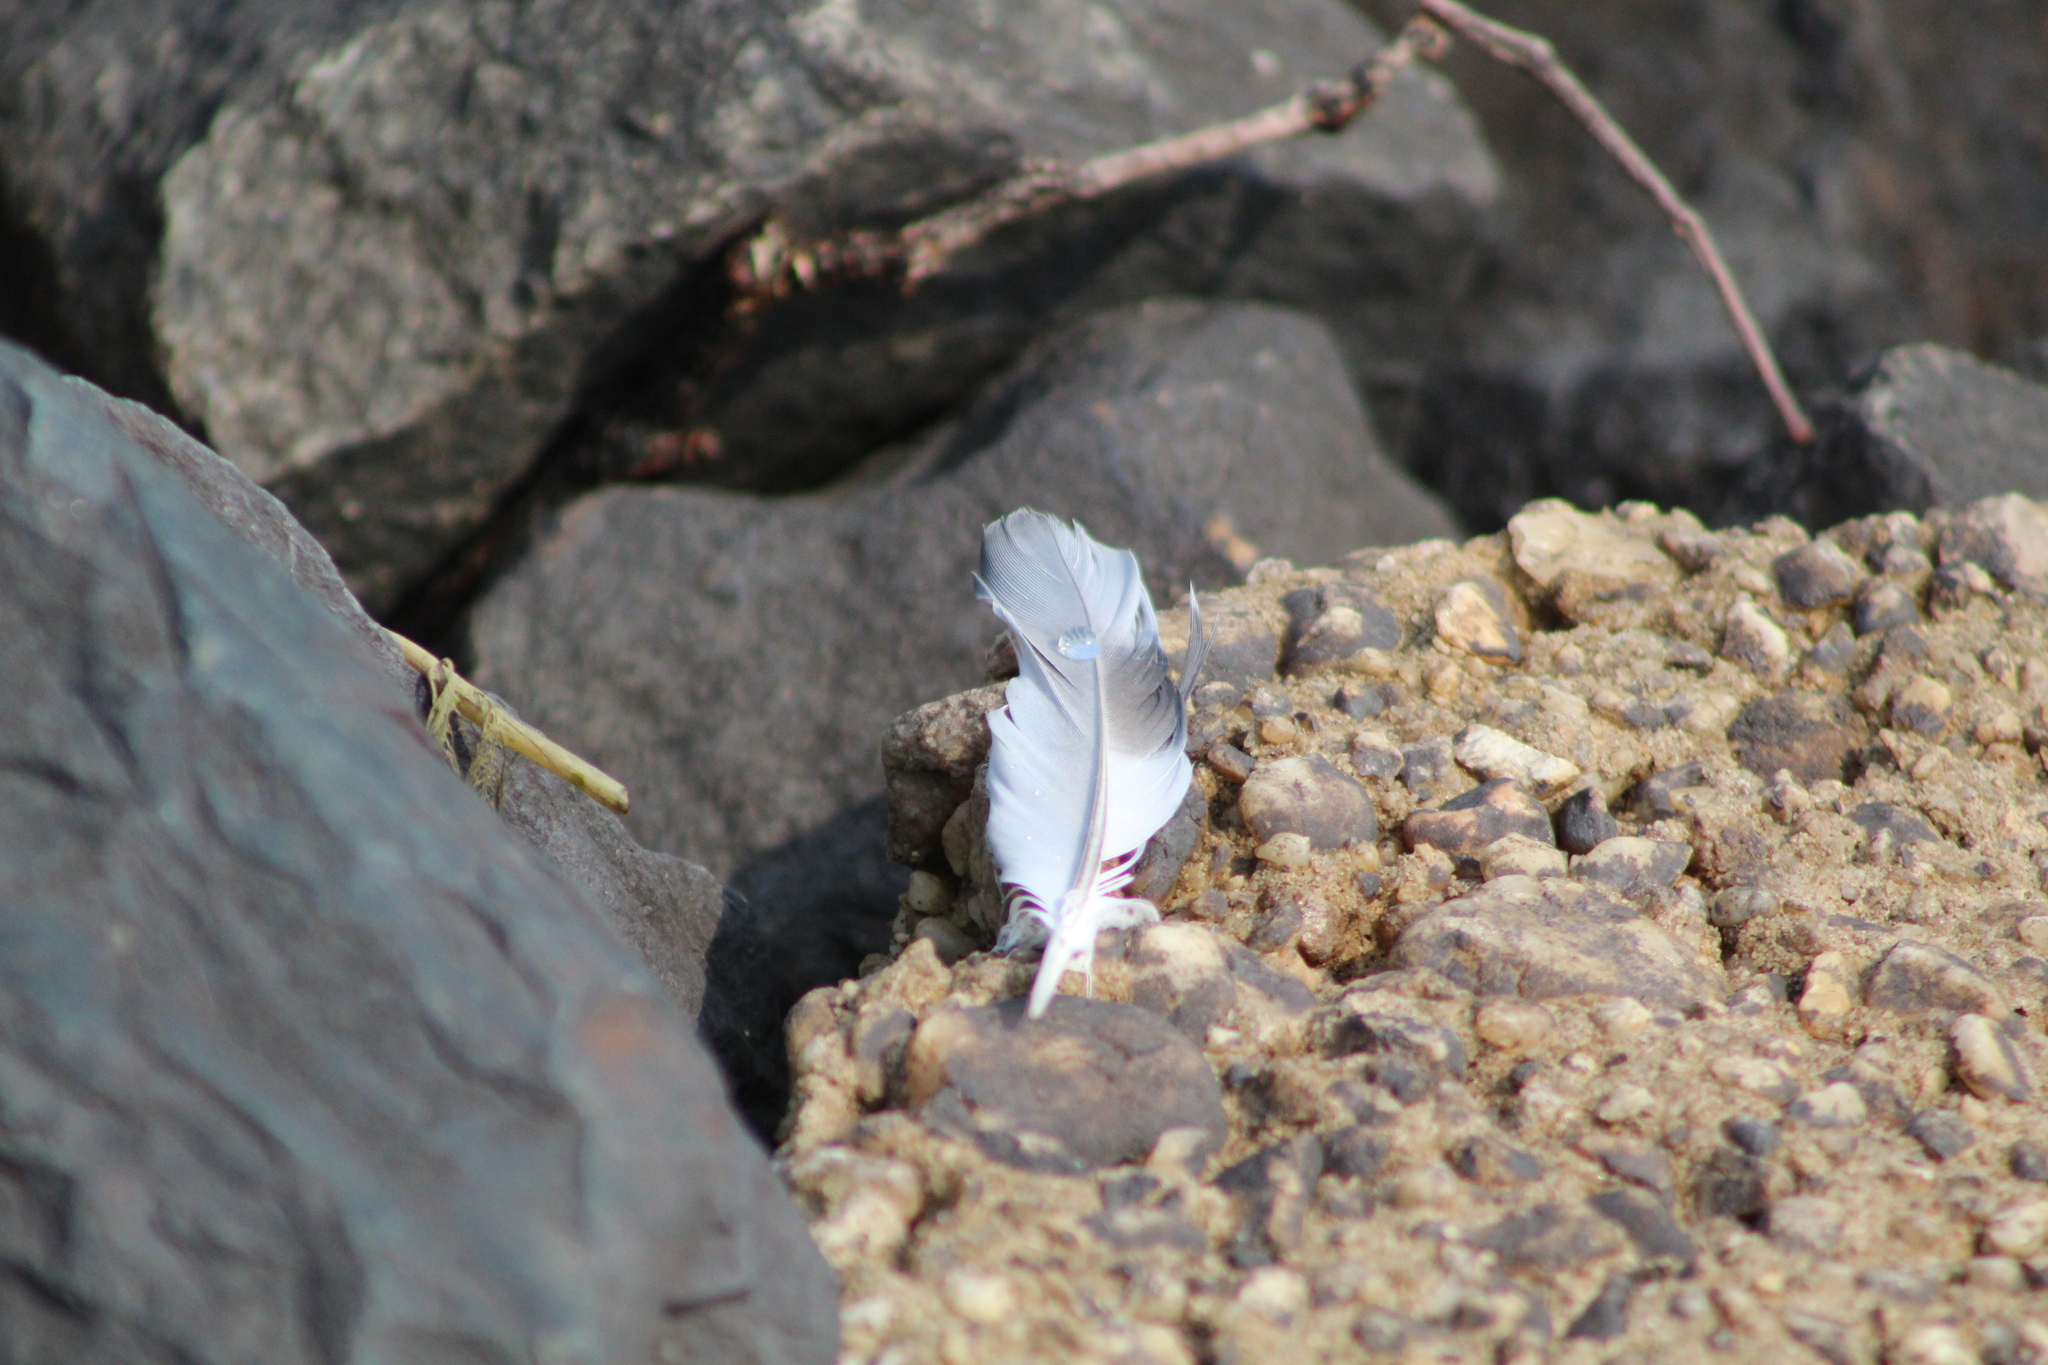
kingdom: Animalia
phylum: Chordata
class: Aves
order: Columbiformes
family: Columbidae
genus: Columba
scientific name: Columba livia
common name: Rock pigeon
